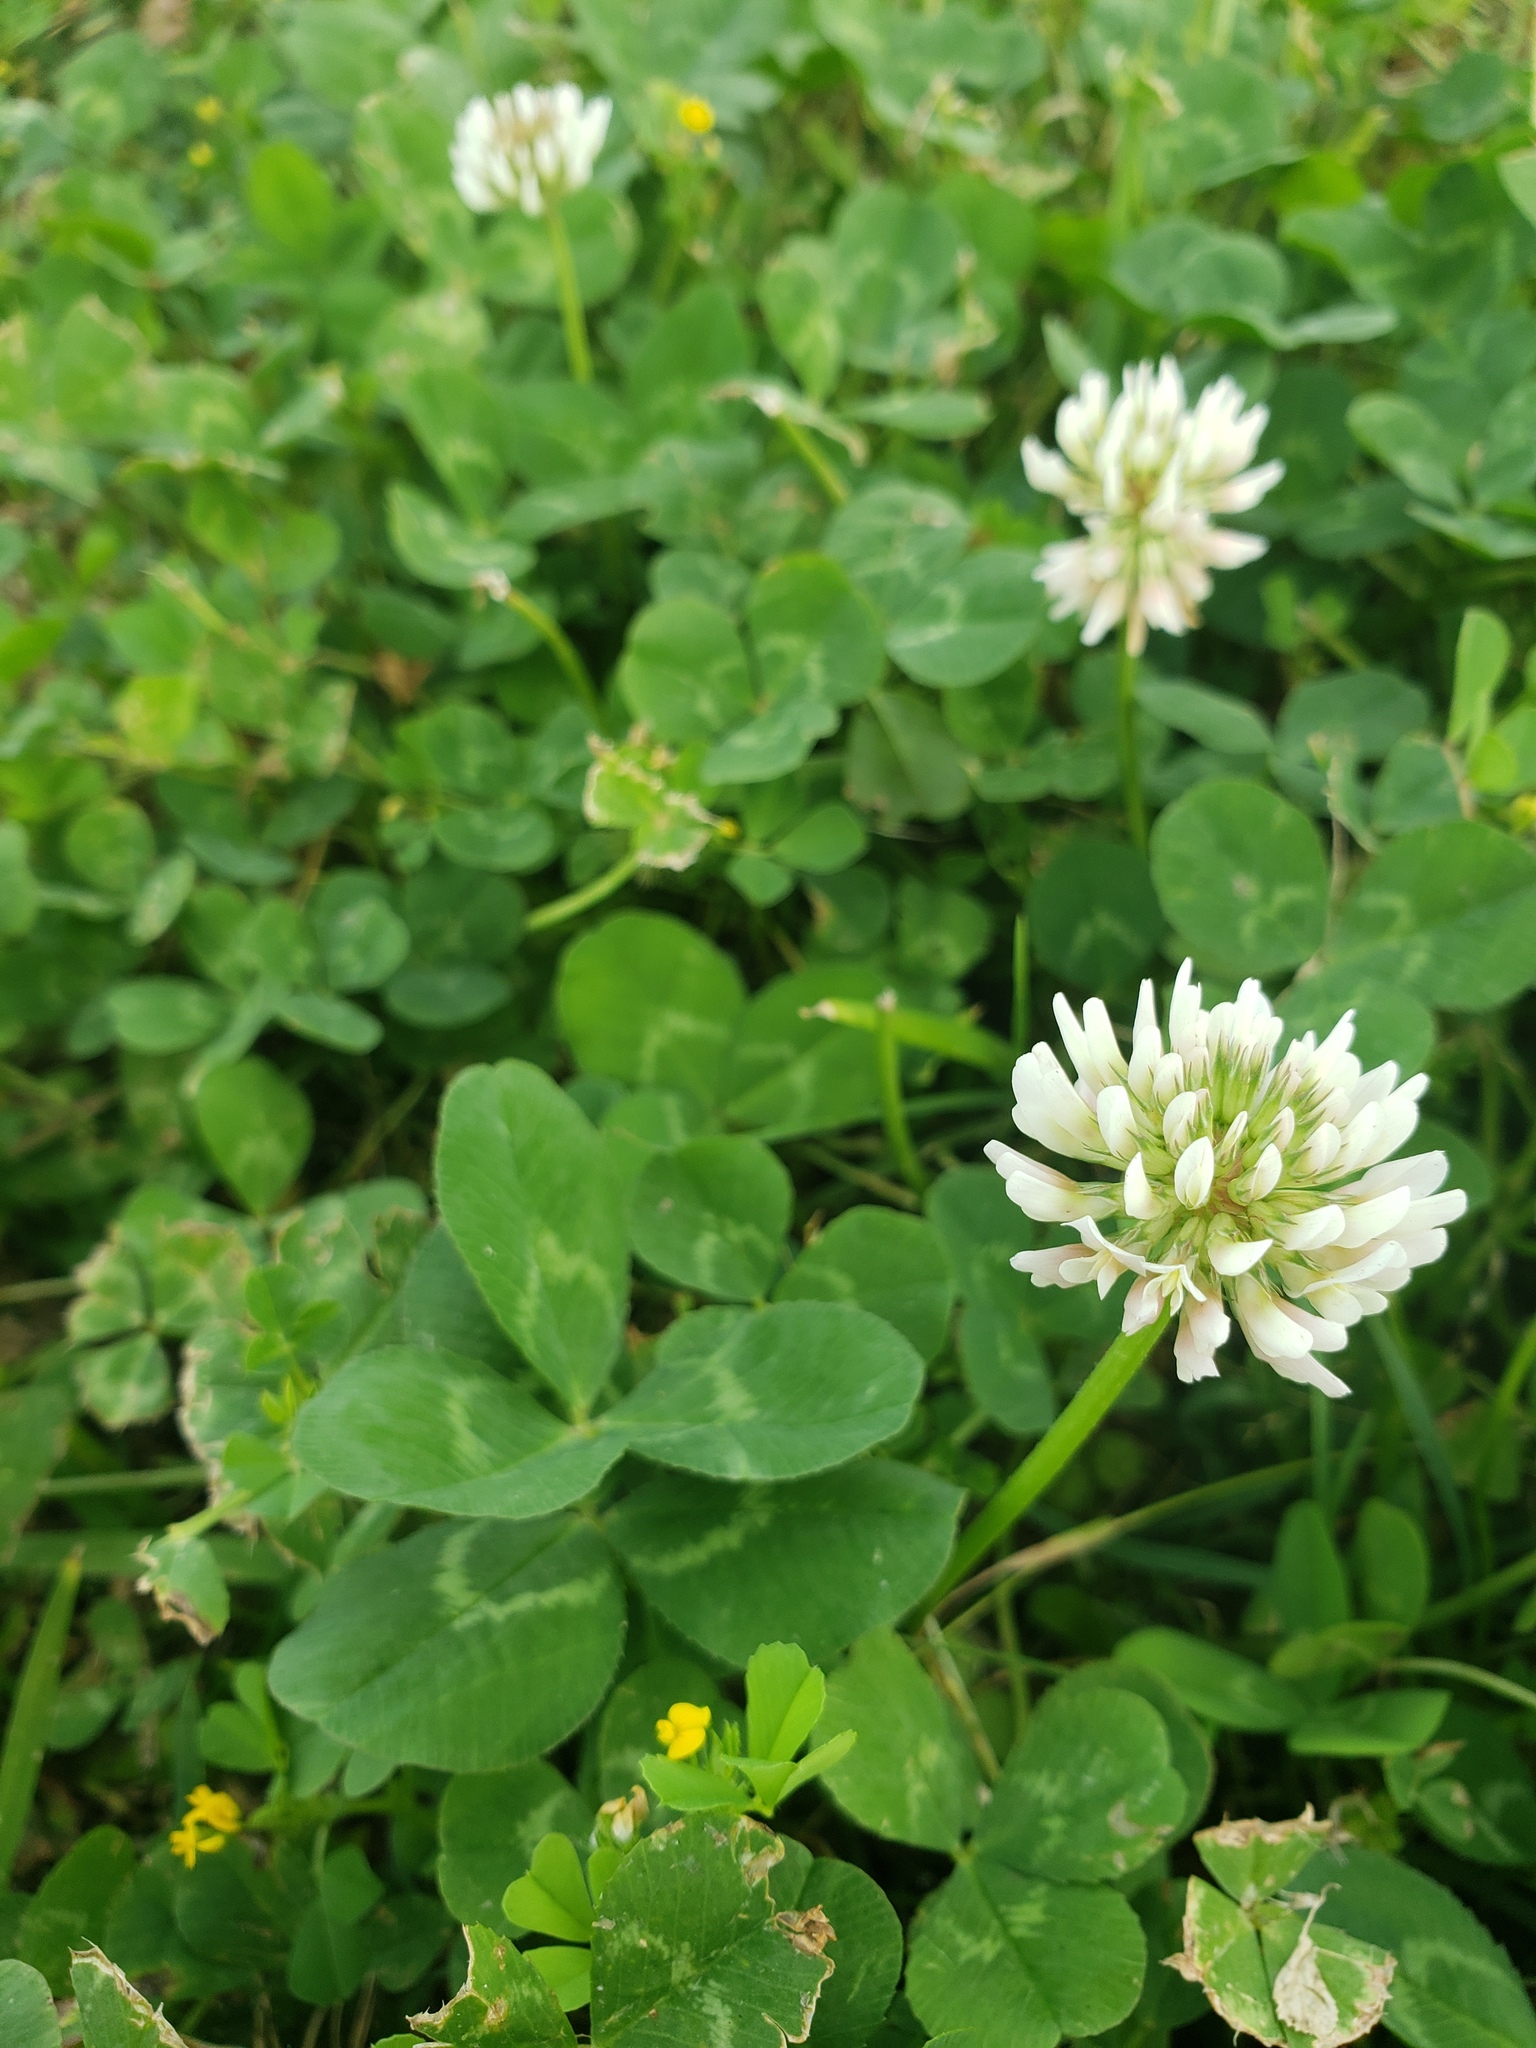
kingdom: Plantae
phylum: Tracheophyta
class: Magnoliopsida
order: Fabales
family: Fabaceae
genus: Trifolium
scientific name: Trifolium repens
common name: White clover
